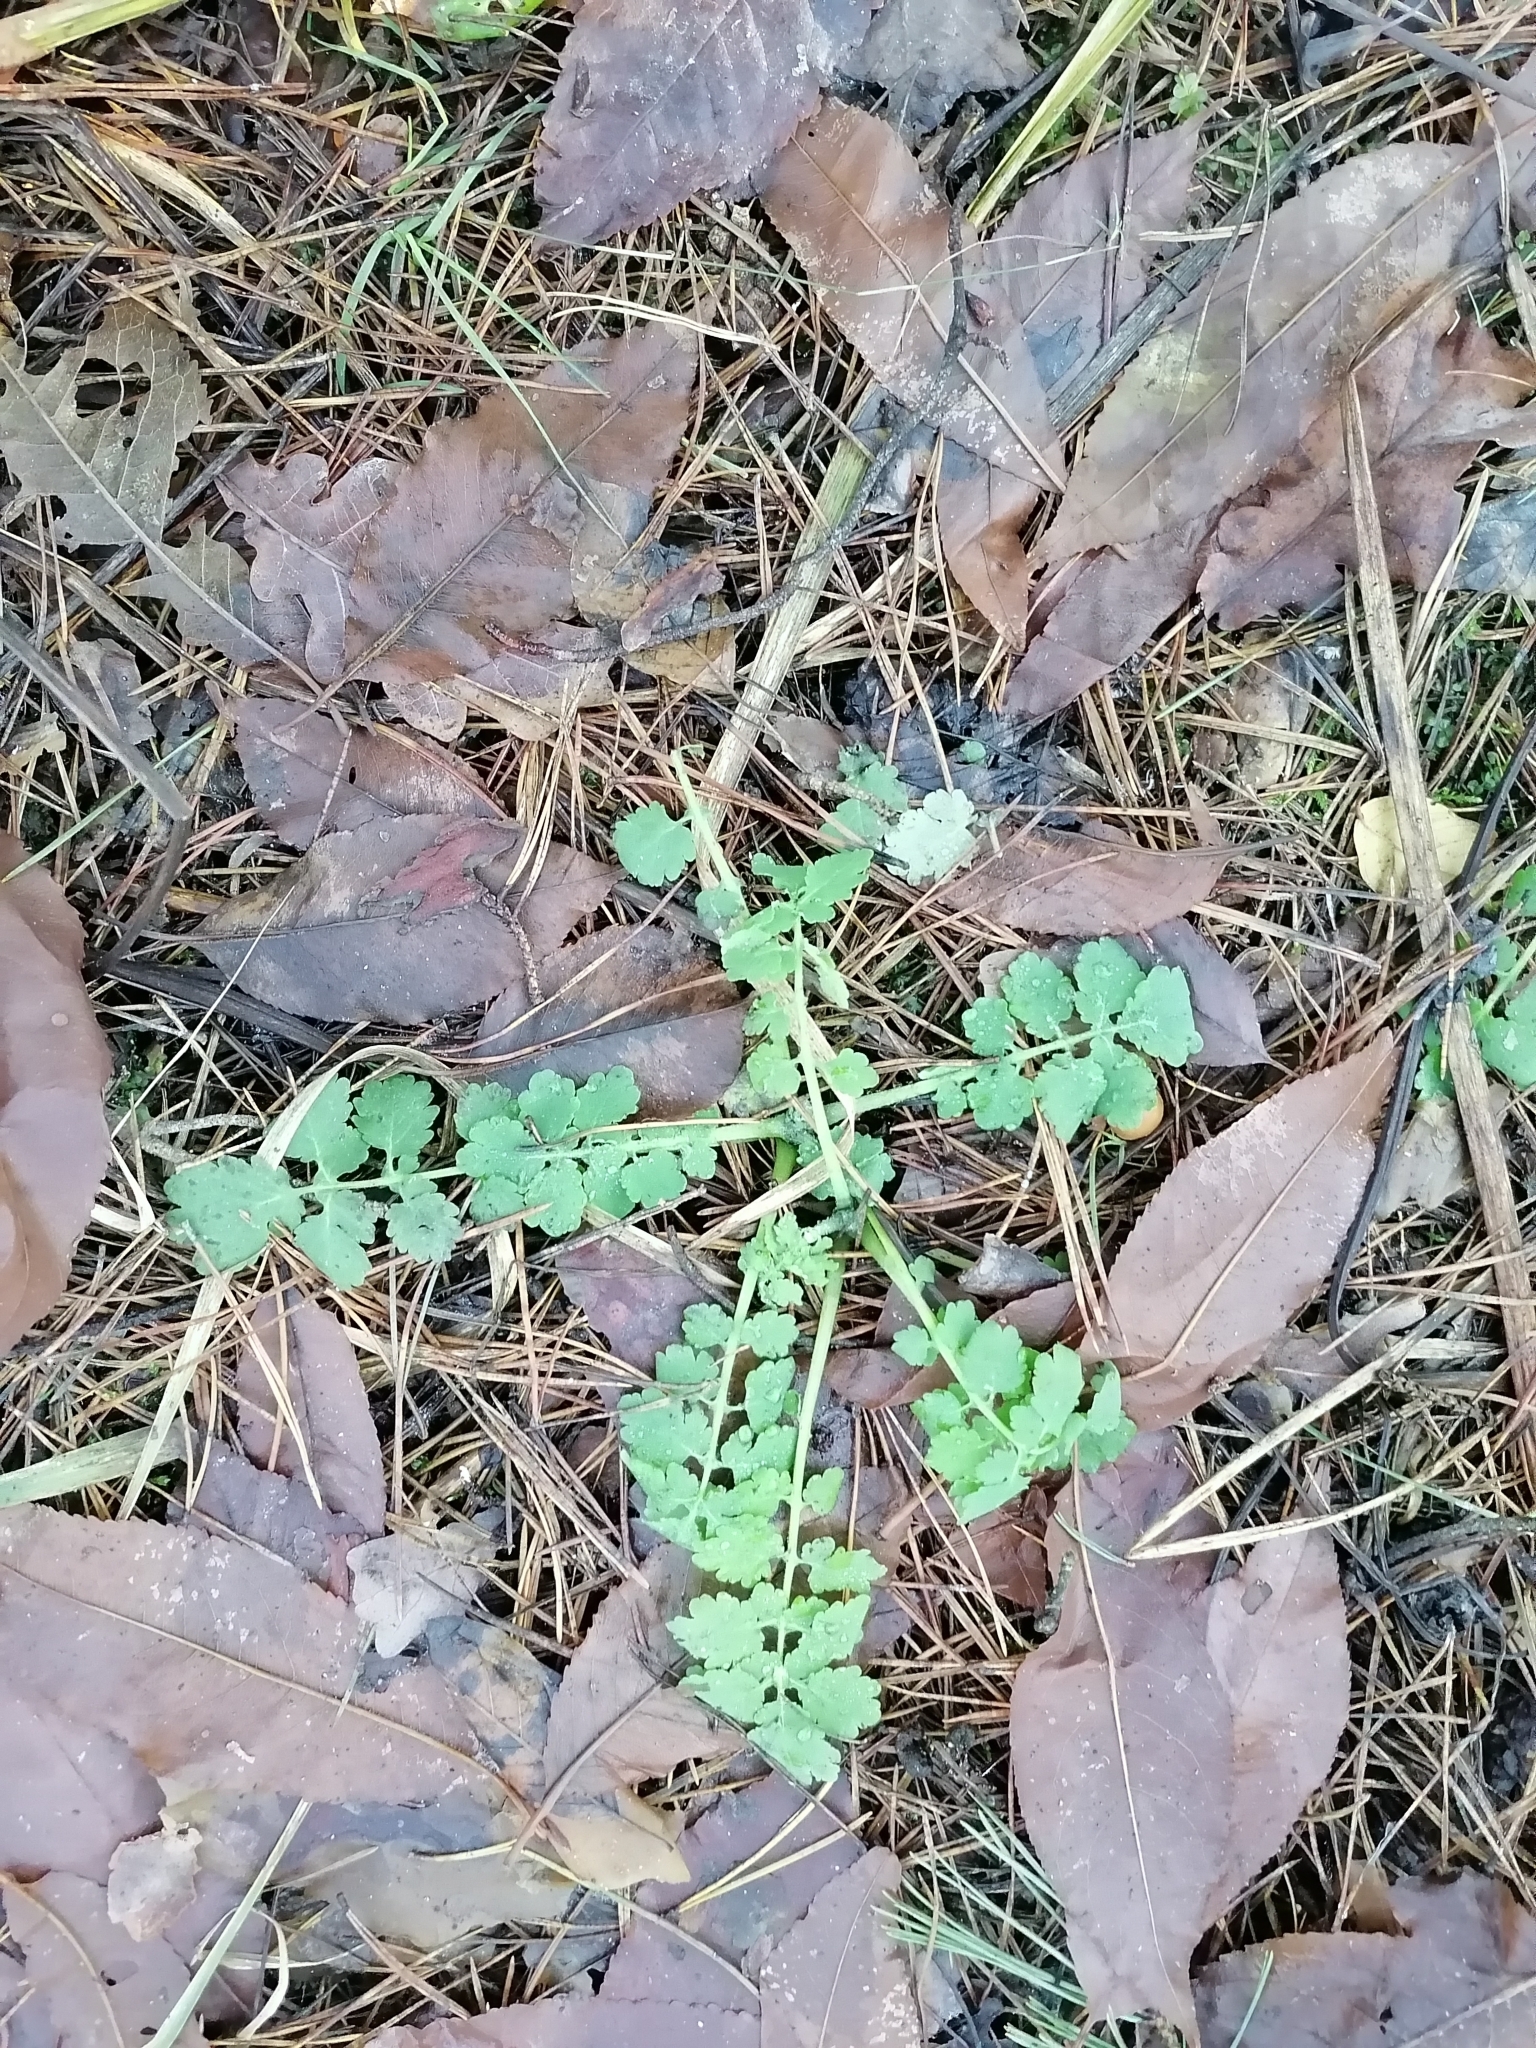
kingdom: Plantae
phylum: Tracheophyta
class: Magnoliopsida
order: Ranunculales
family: Papaveraceae
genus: Chelidonium
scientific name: Chelidonium majus
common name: Greater celandine
